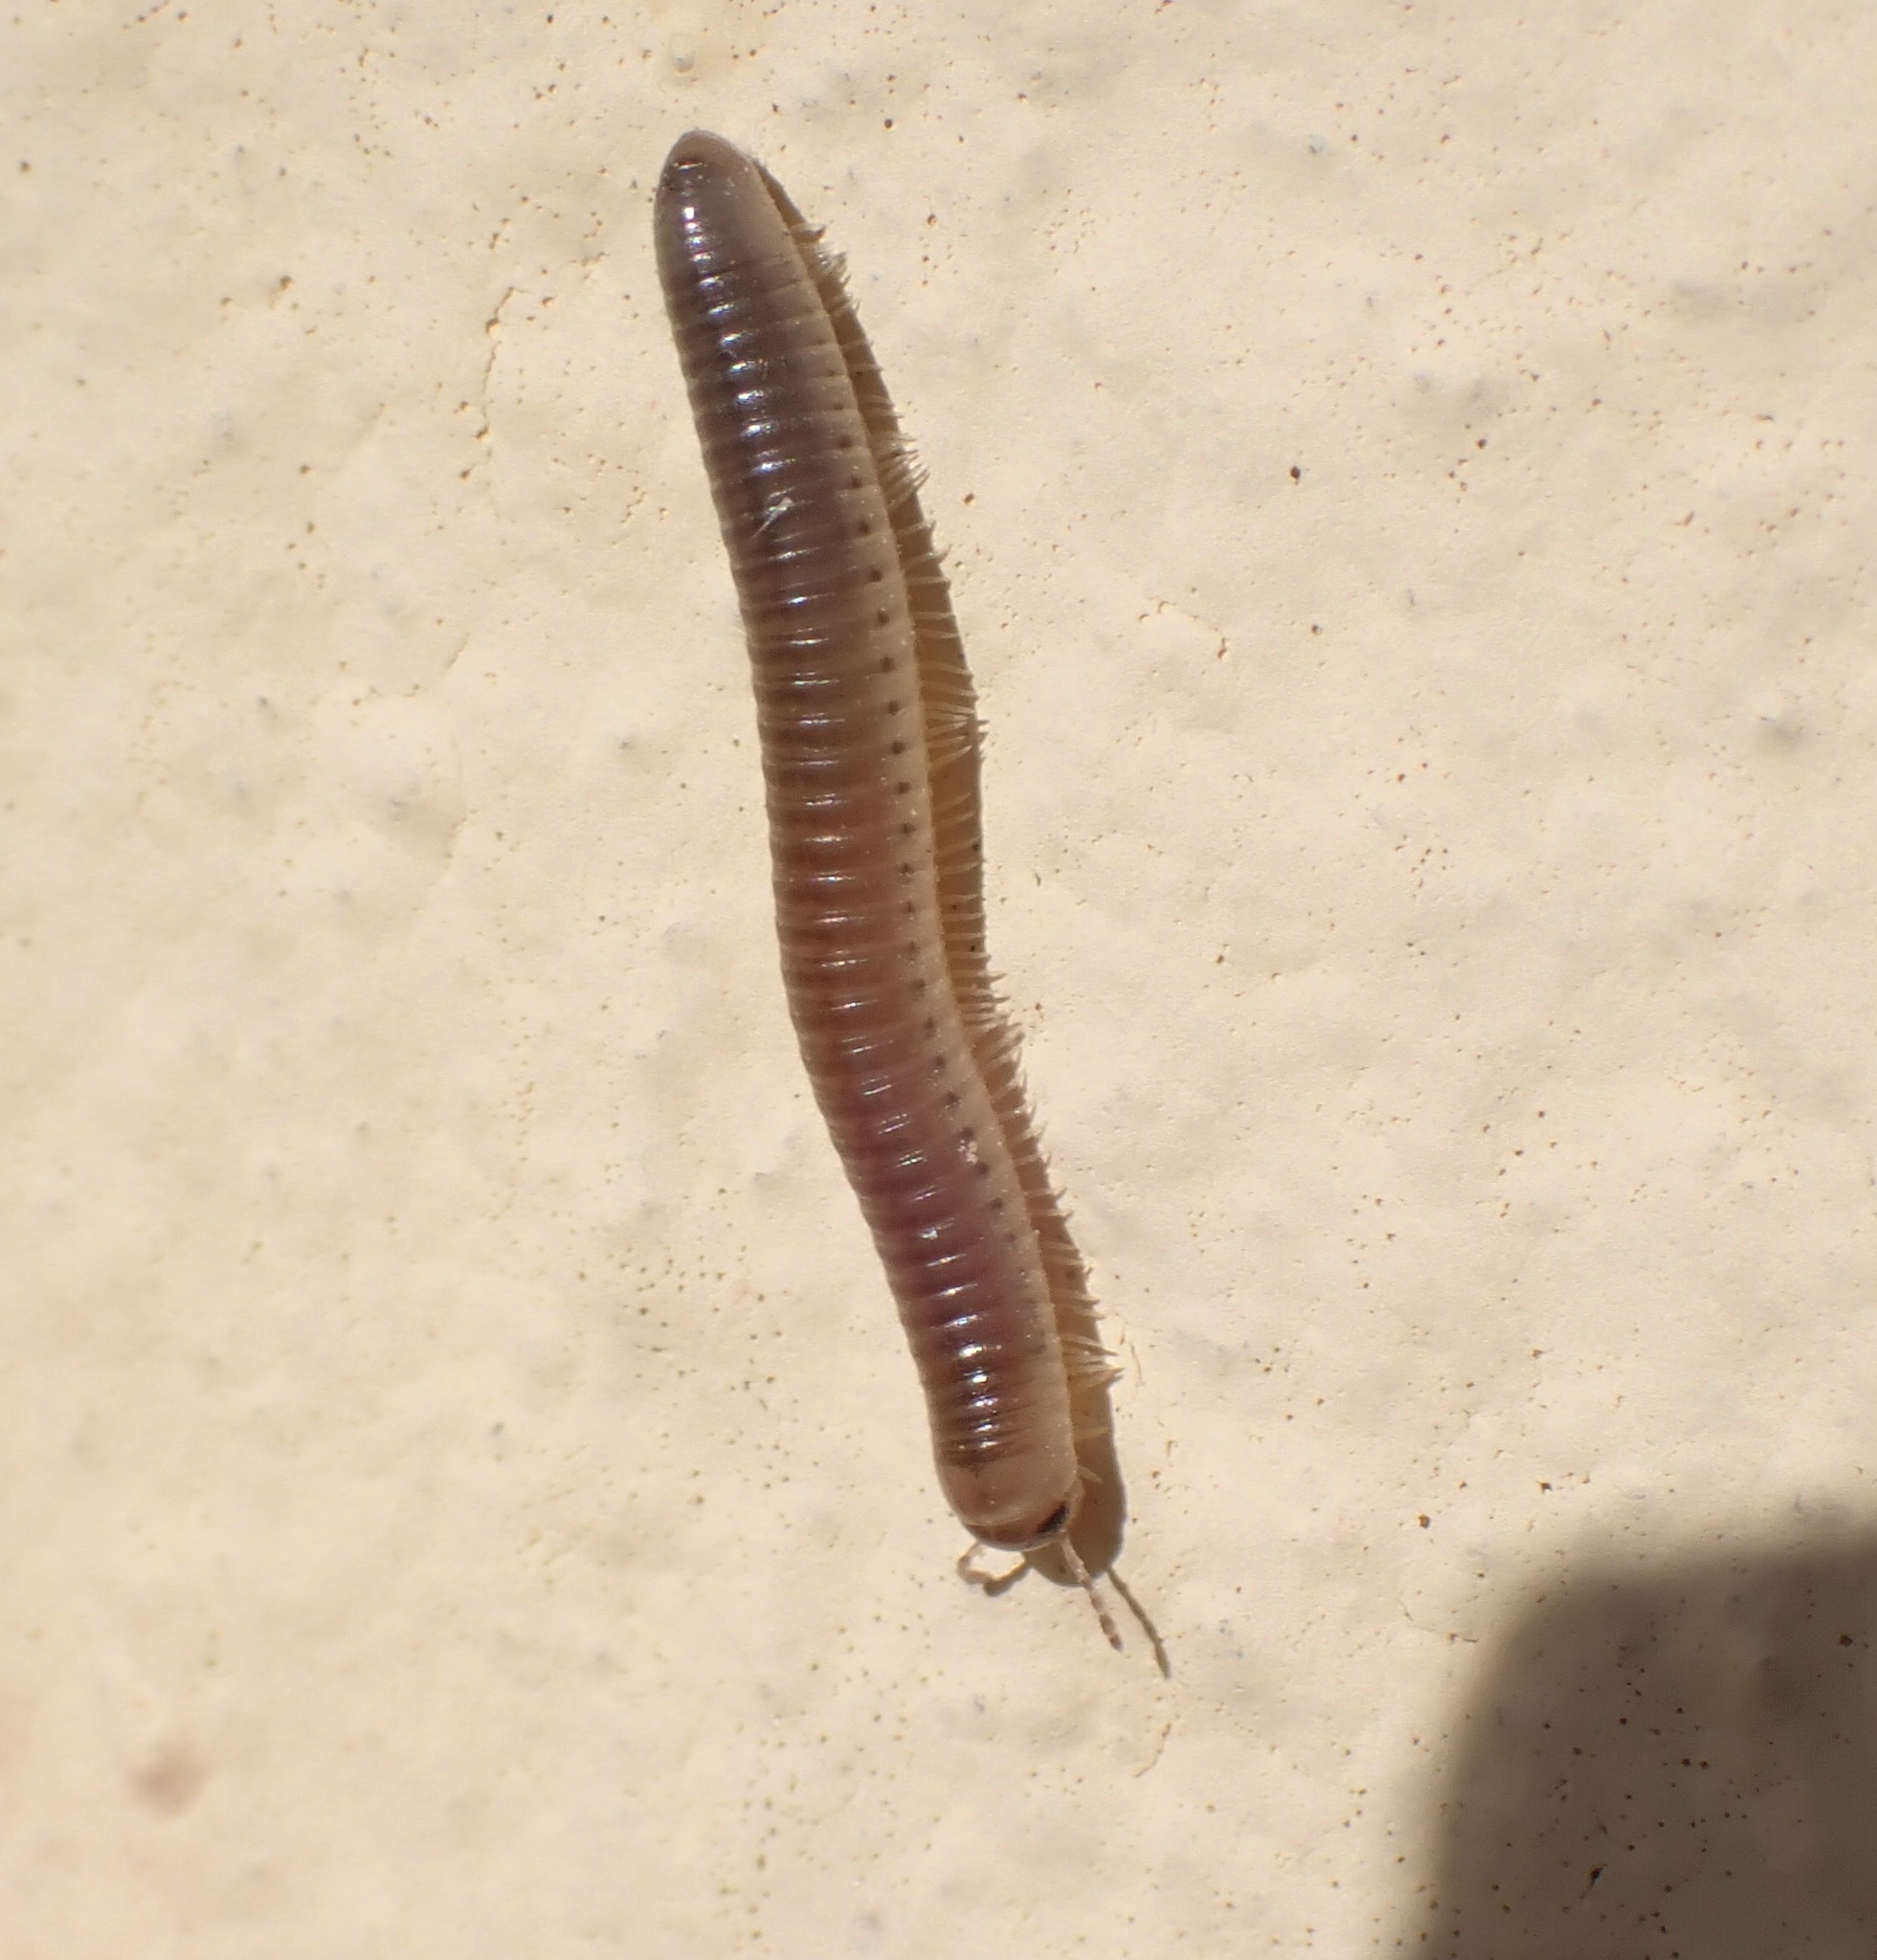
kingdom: Animalia
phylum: Arthropoda
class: Diplopoda
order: Julida
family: Julidae
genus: Pachyiulus
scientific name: Pachyiulus flavipes
